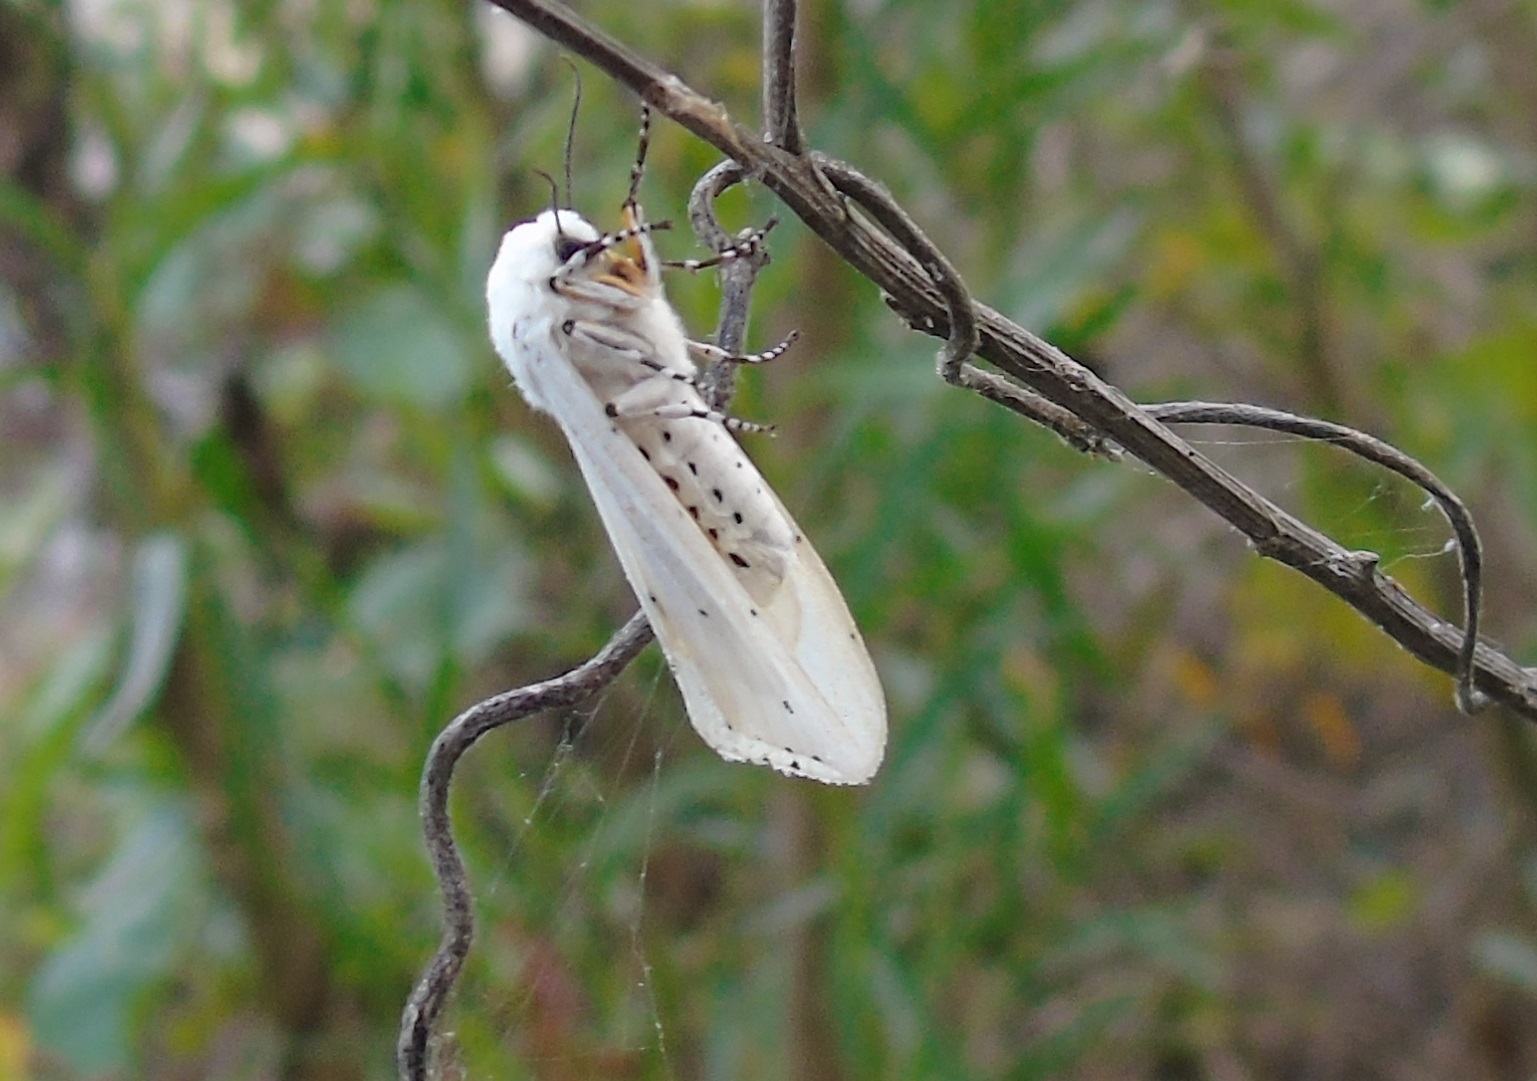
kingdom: Animalia
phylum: Arthropoda
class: Insecta
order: Lepidoptera
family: Erebidae
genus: Estigmene
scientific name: Estigmene
